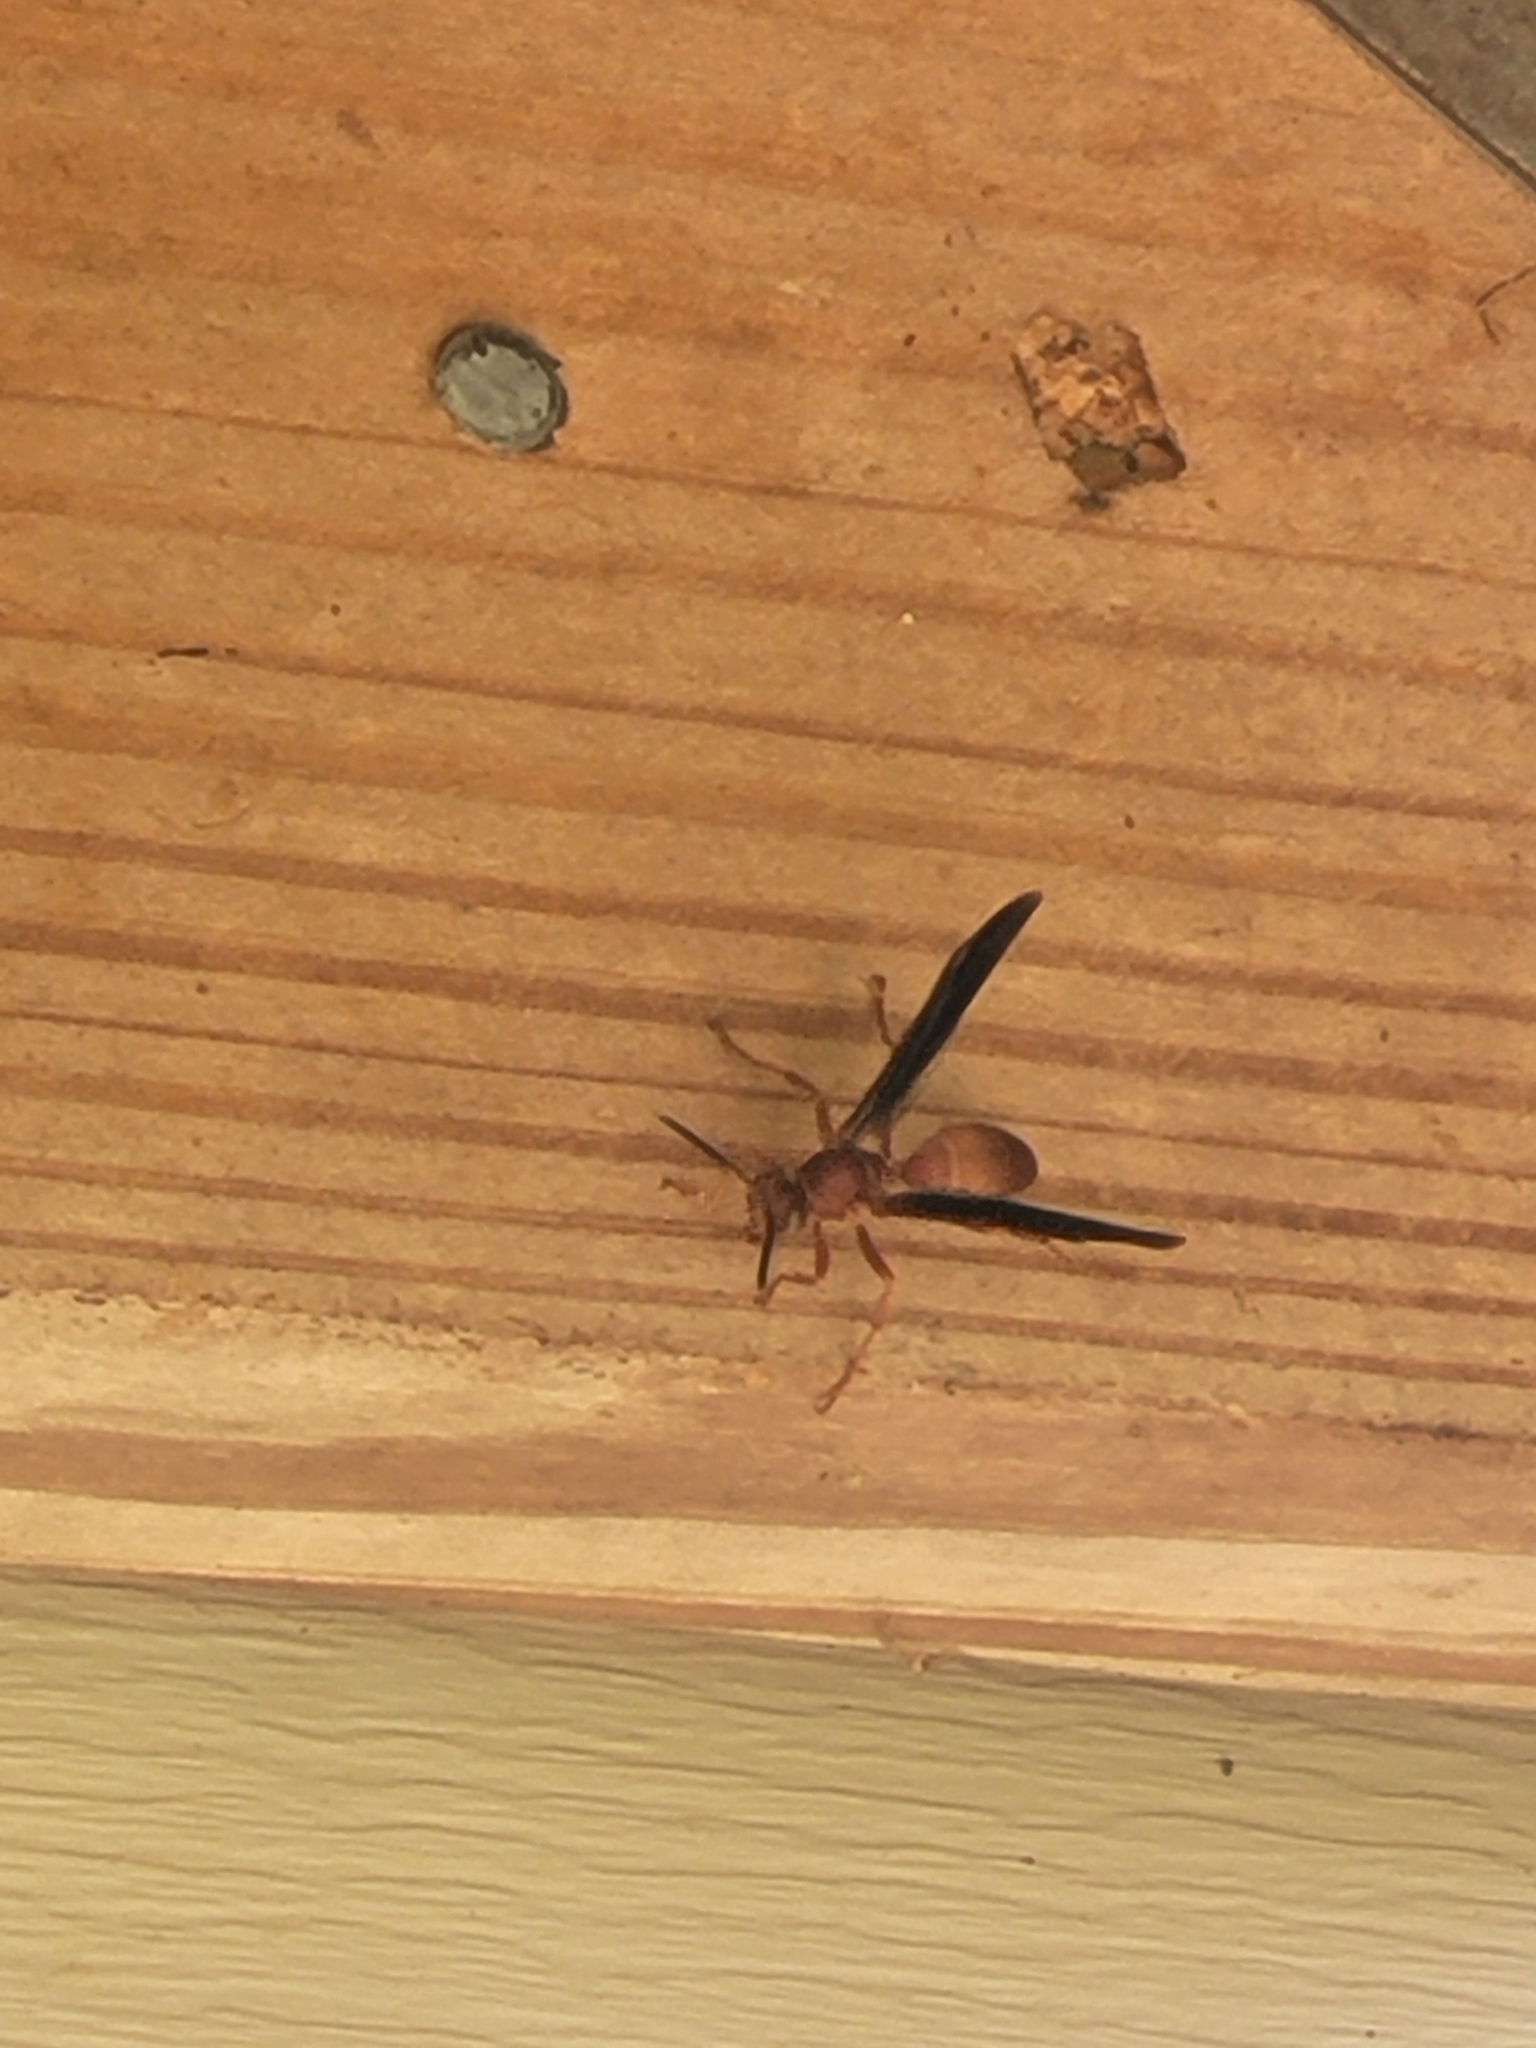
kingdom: Animalia
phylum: Arthropoda
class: Insecta
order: Hymenoptera
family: Eumenidae
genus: Polistes
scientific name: Polistes carolina
